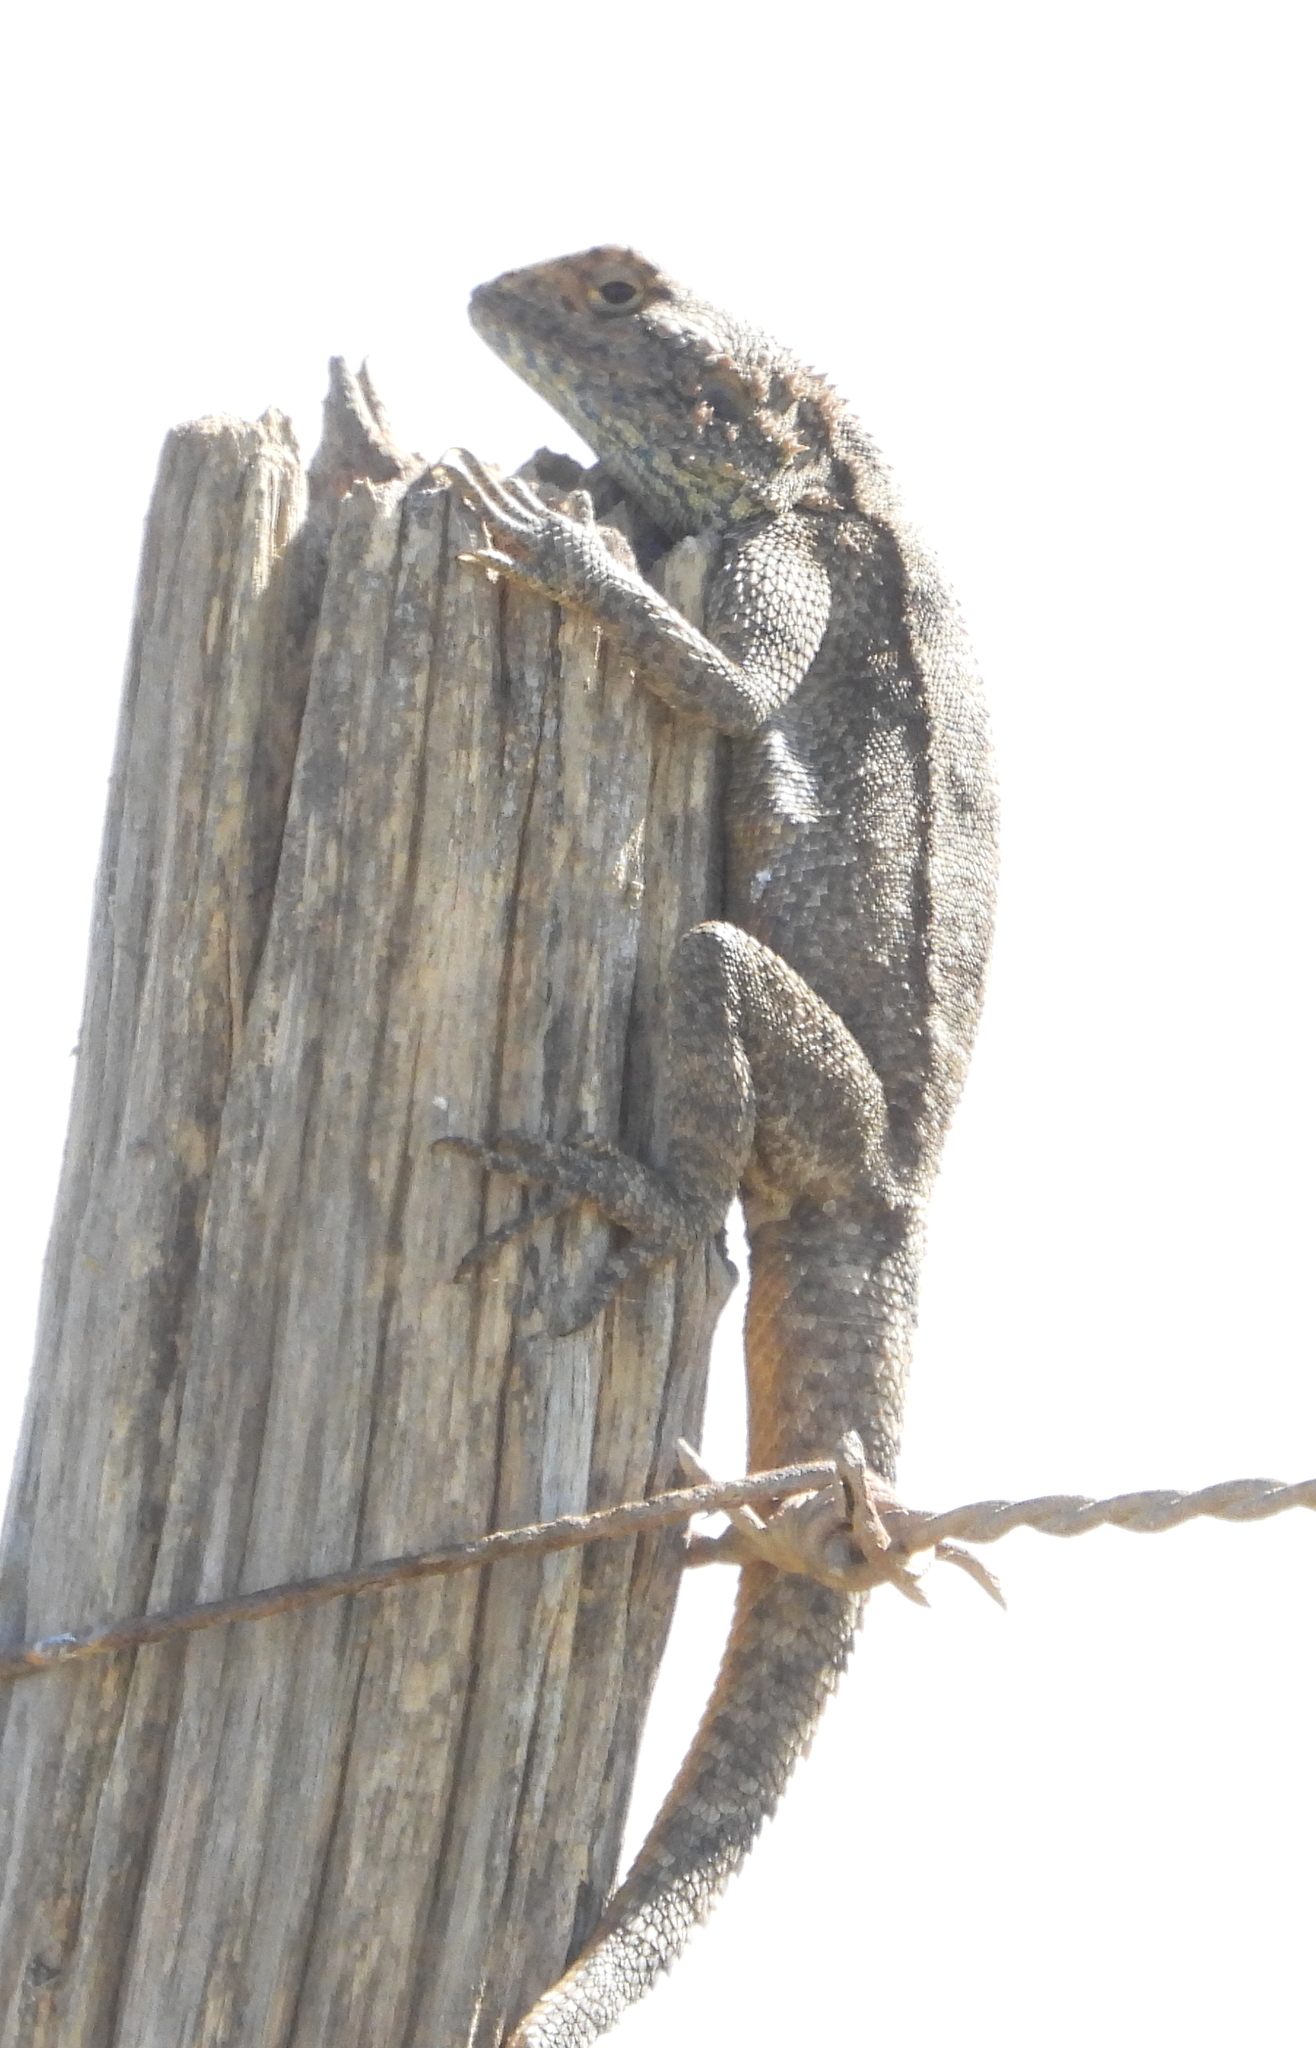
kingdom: Animalia
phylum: Chordata
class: Squamata
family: Agamidae
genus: Agama
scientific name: Agama atra
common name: Southern african rock agama
